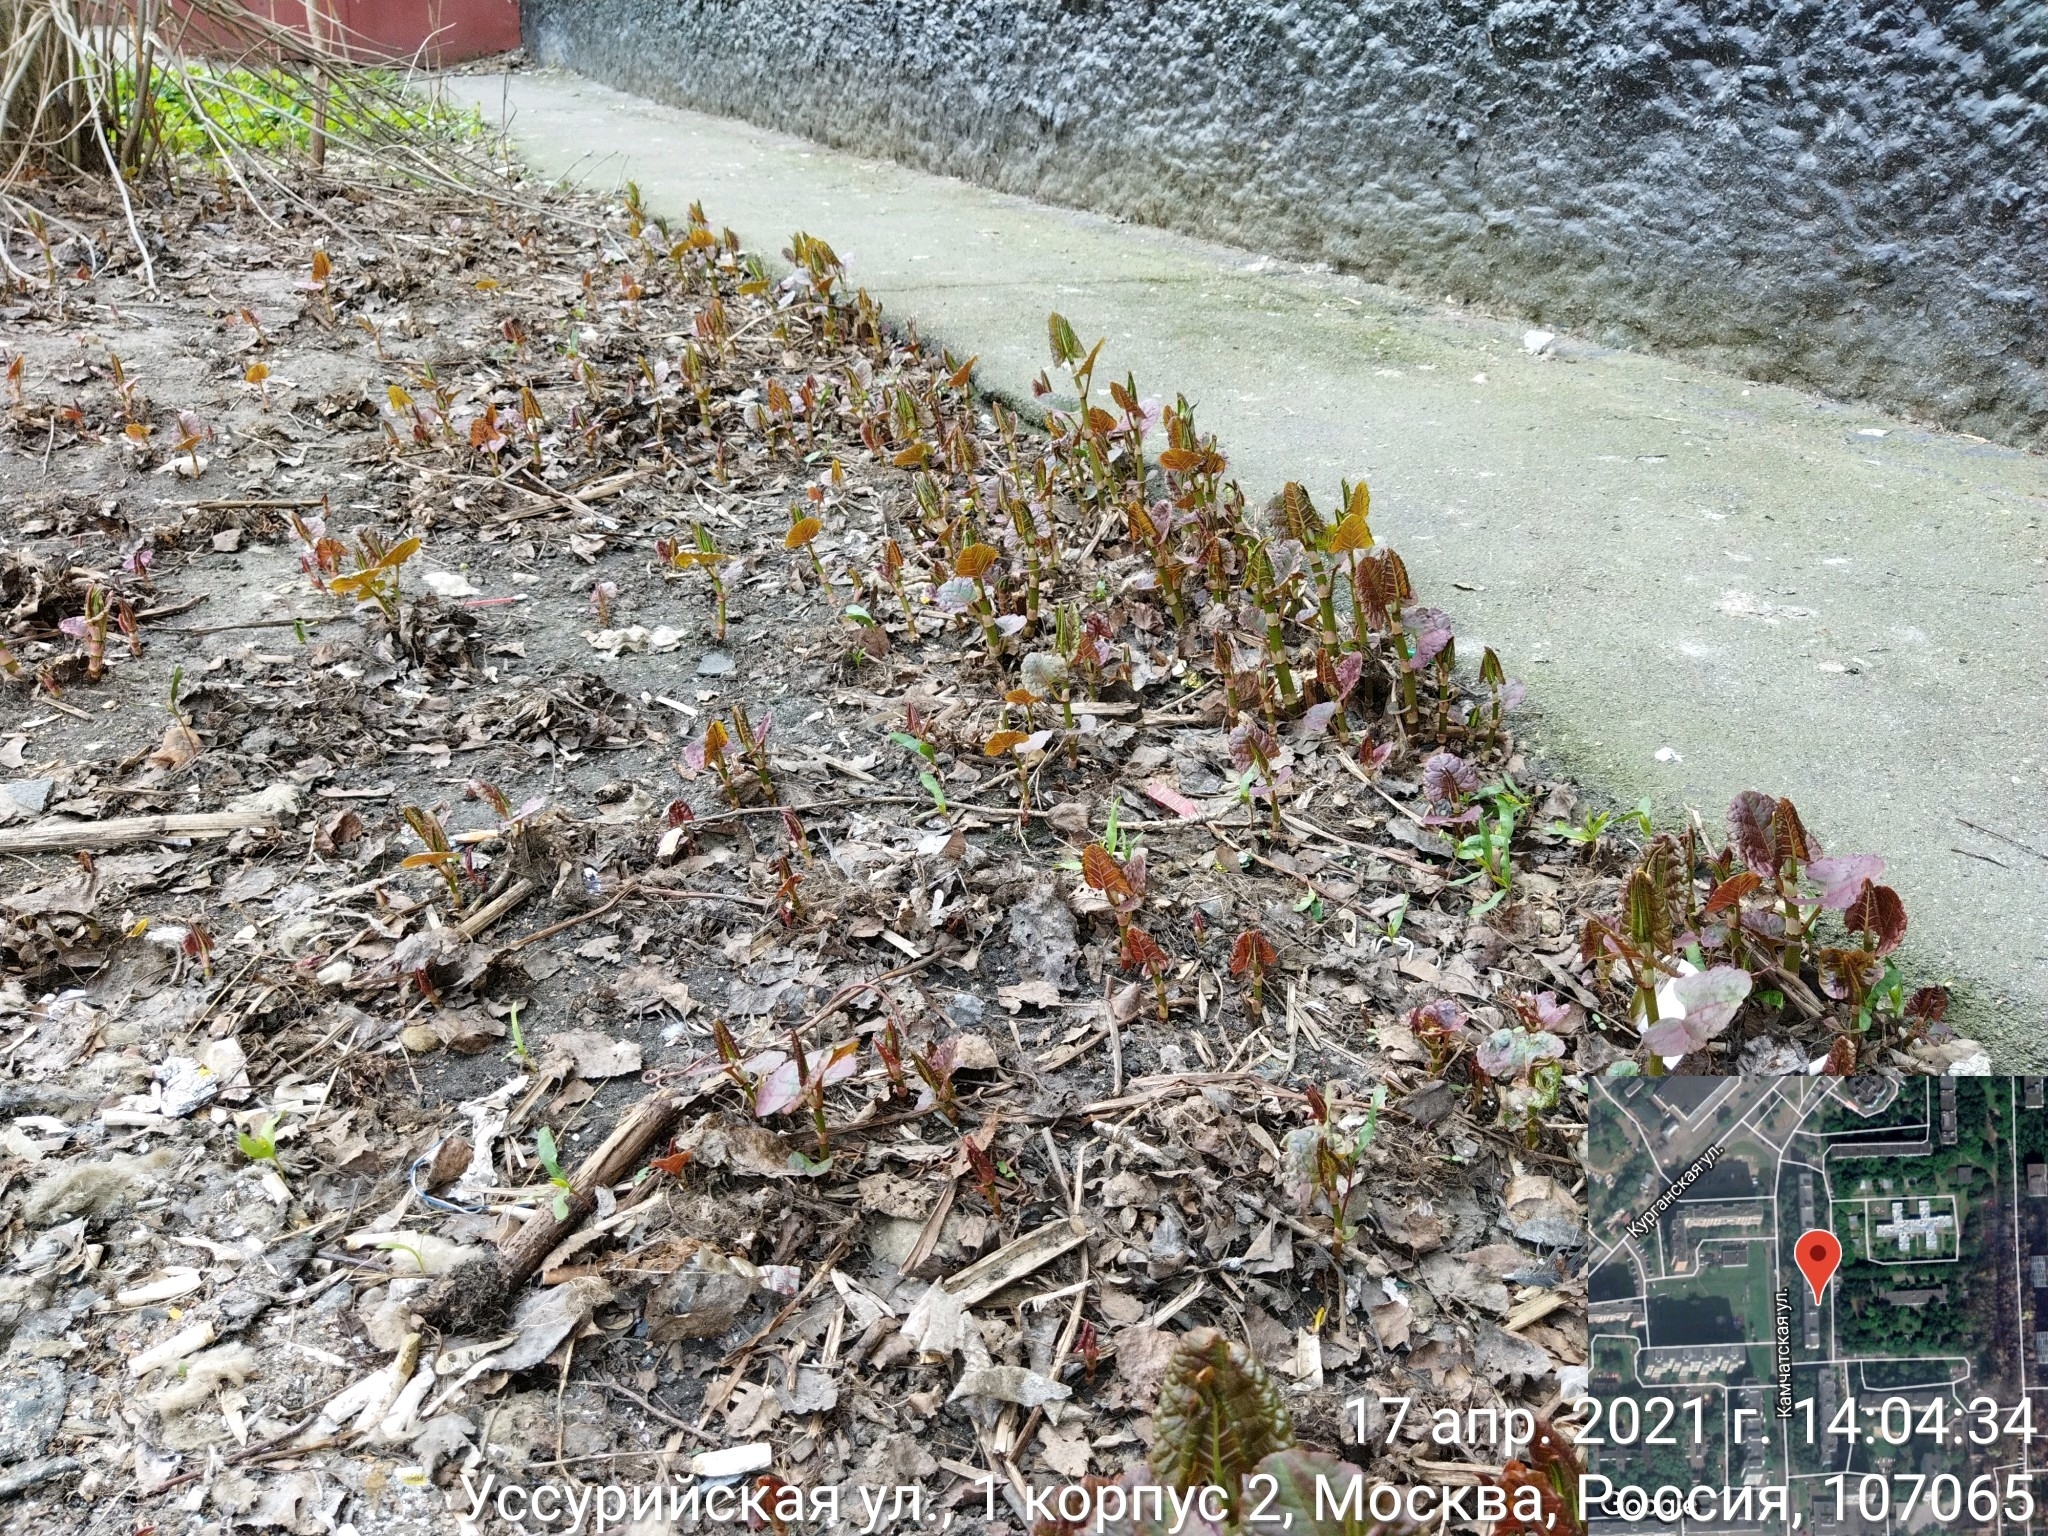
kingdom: Plantae
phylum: Tracheophyta
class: Magnoliopsida
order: Caryophyllales
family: Polygonaceae
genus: Reynoutria
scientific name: Reynoutria bohemica
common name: Bohemian knotweed
